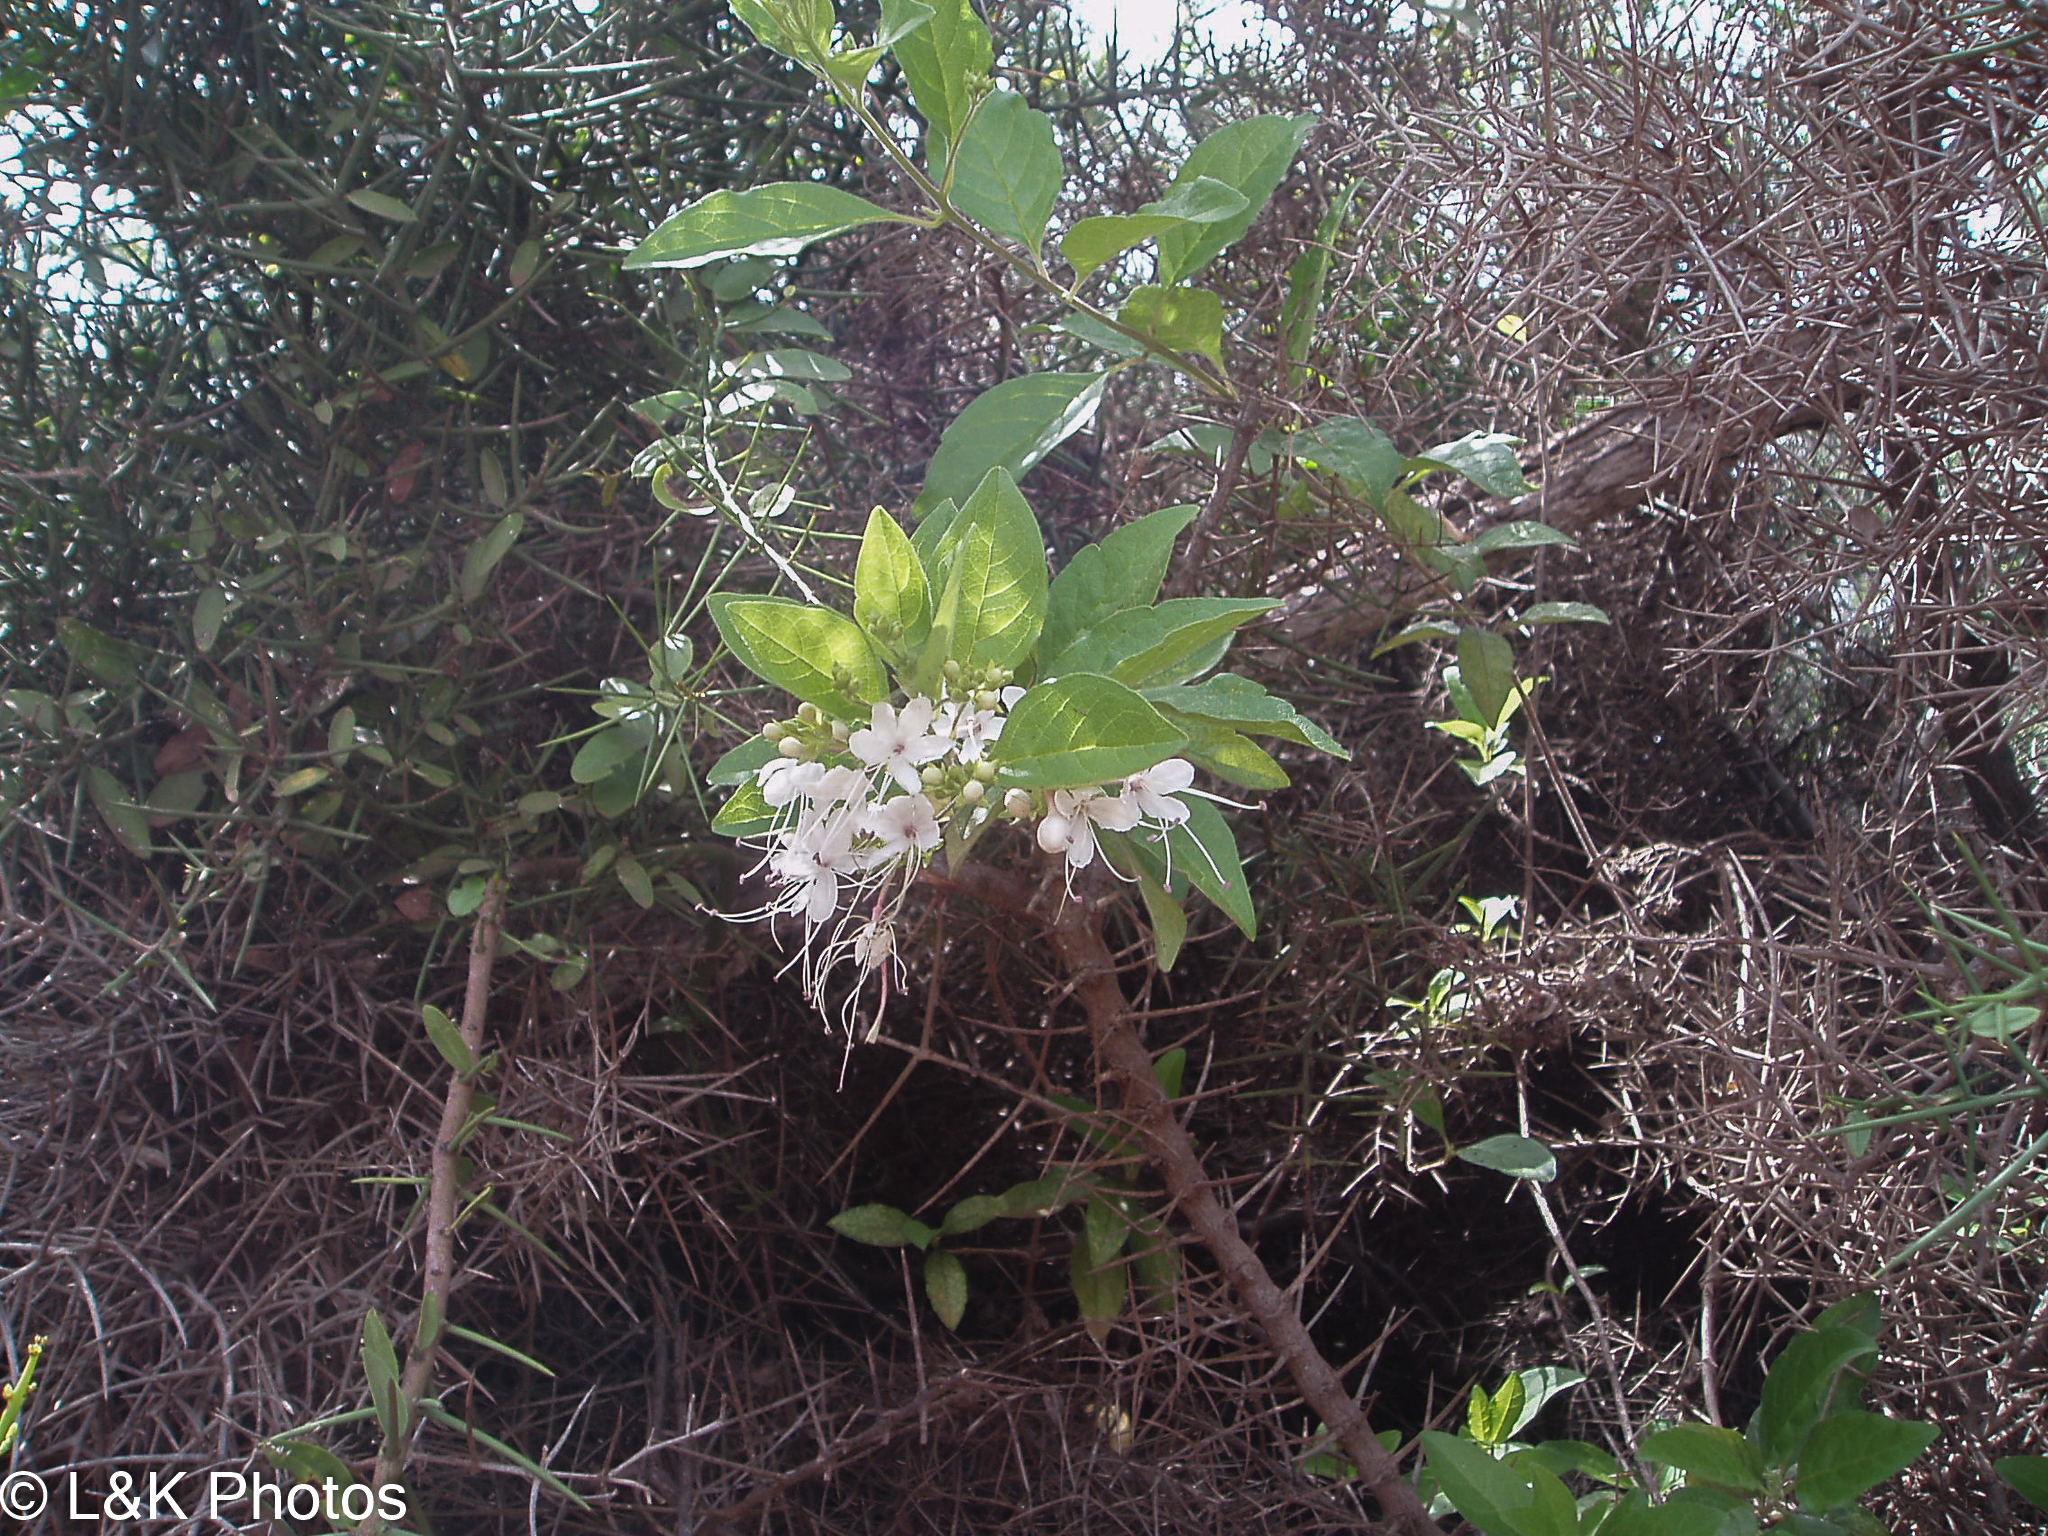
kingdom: Plantae
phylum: Tracheophyta
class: Magnoliopsida
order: Lamiales
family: Lamiaceae
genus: Volkameria
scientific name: Volkameria mollis
